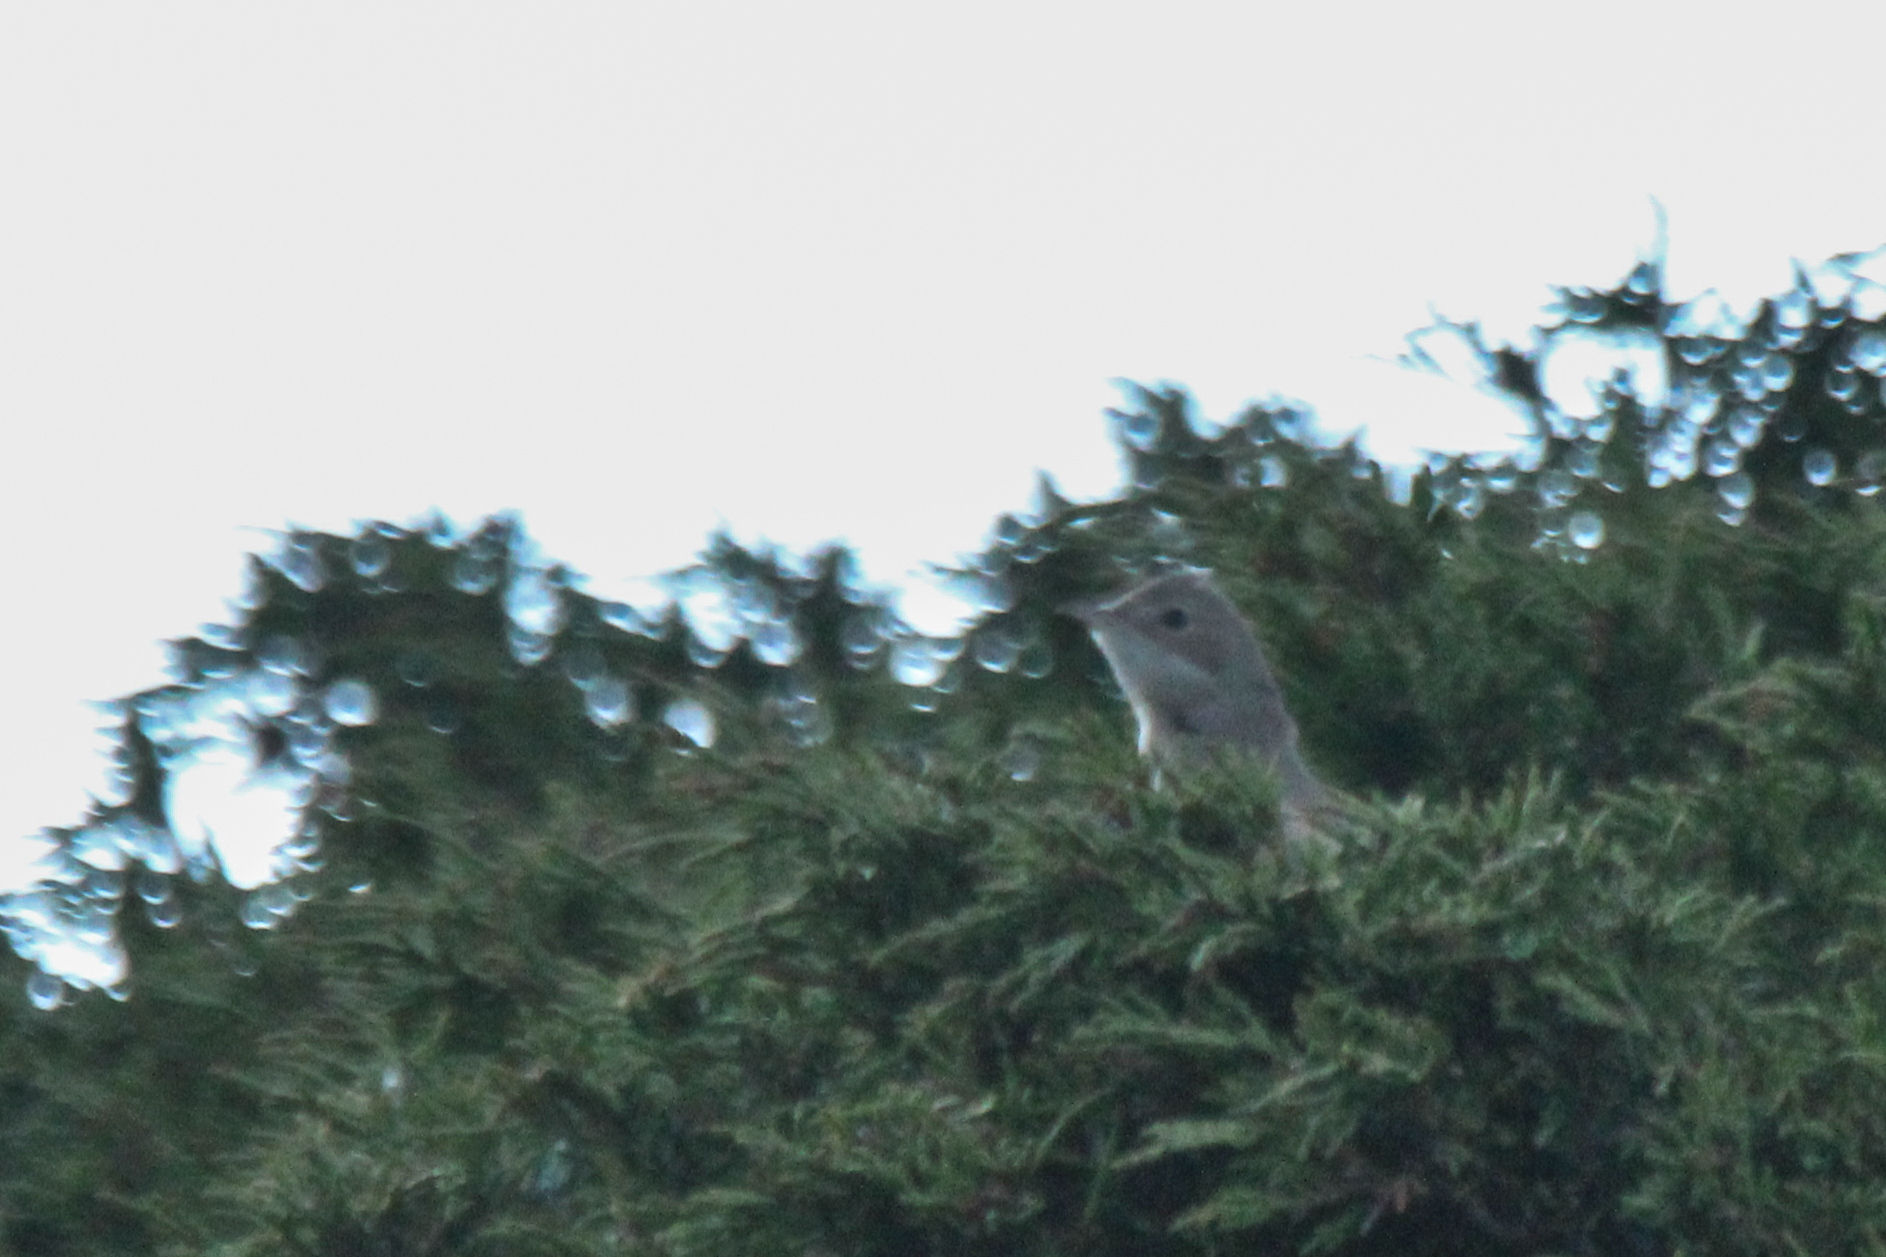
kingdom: Animalia
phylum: Chordata
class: Aves
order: Passeriformes
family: Sylviidae
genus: Sylvia
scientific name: Sylvia communis
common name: Common whitethroat
